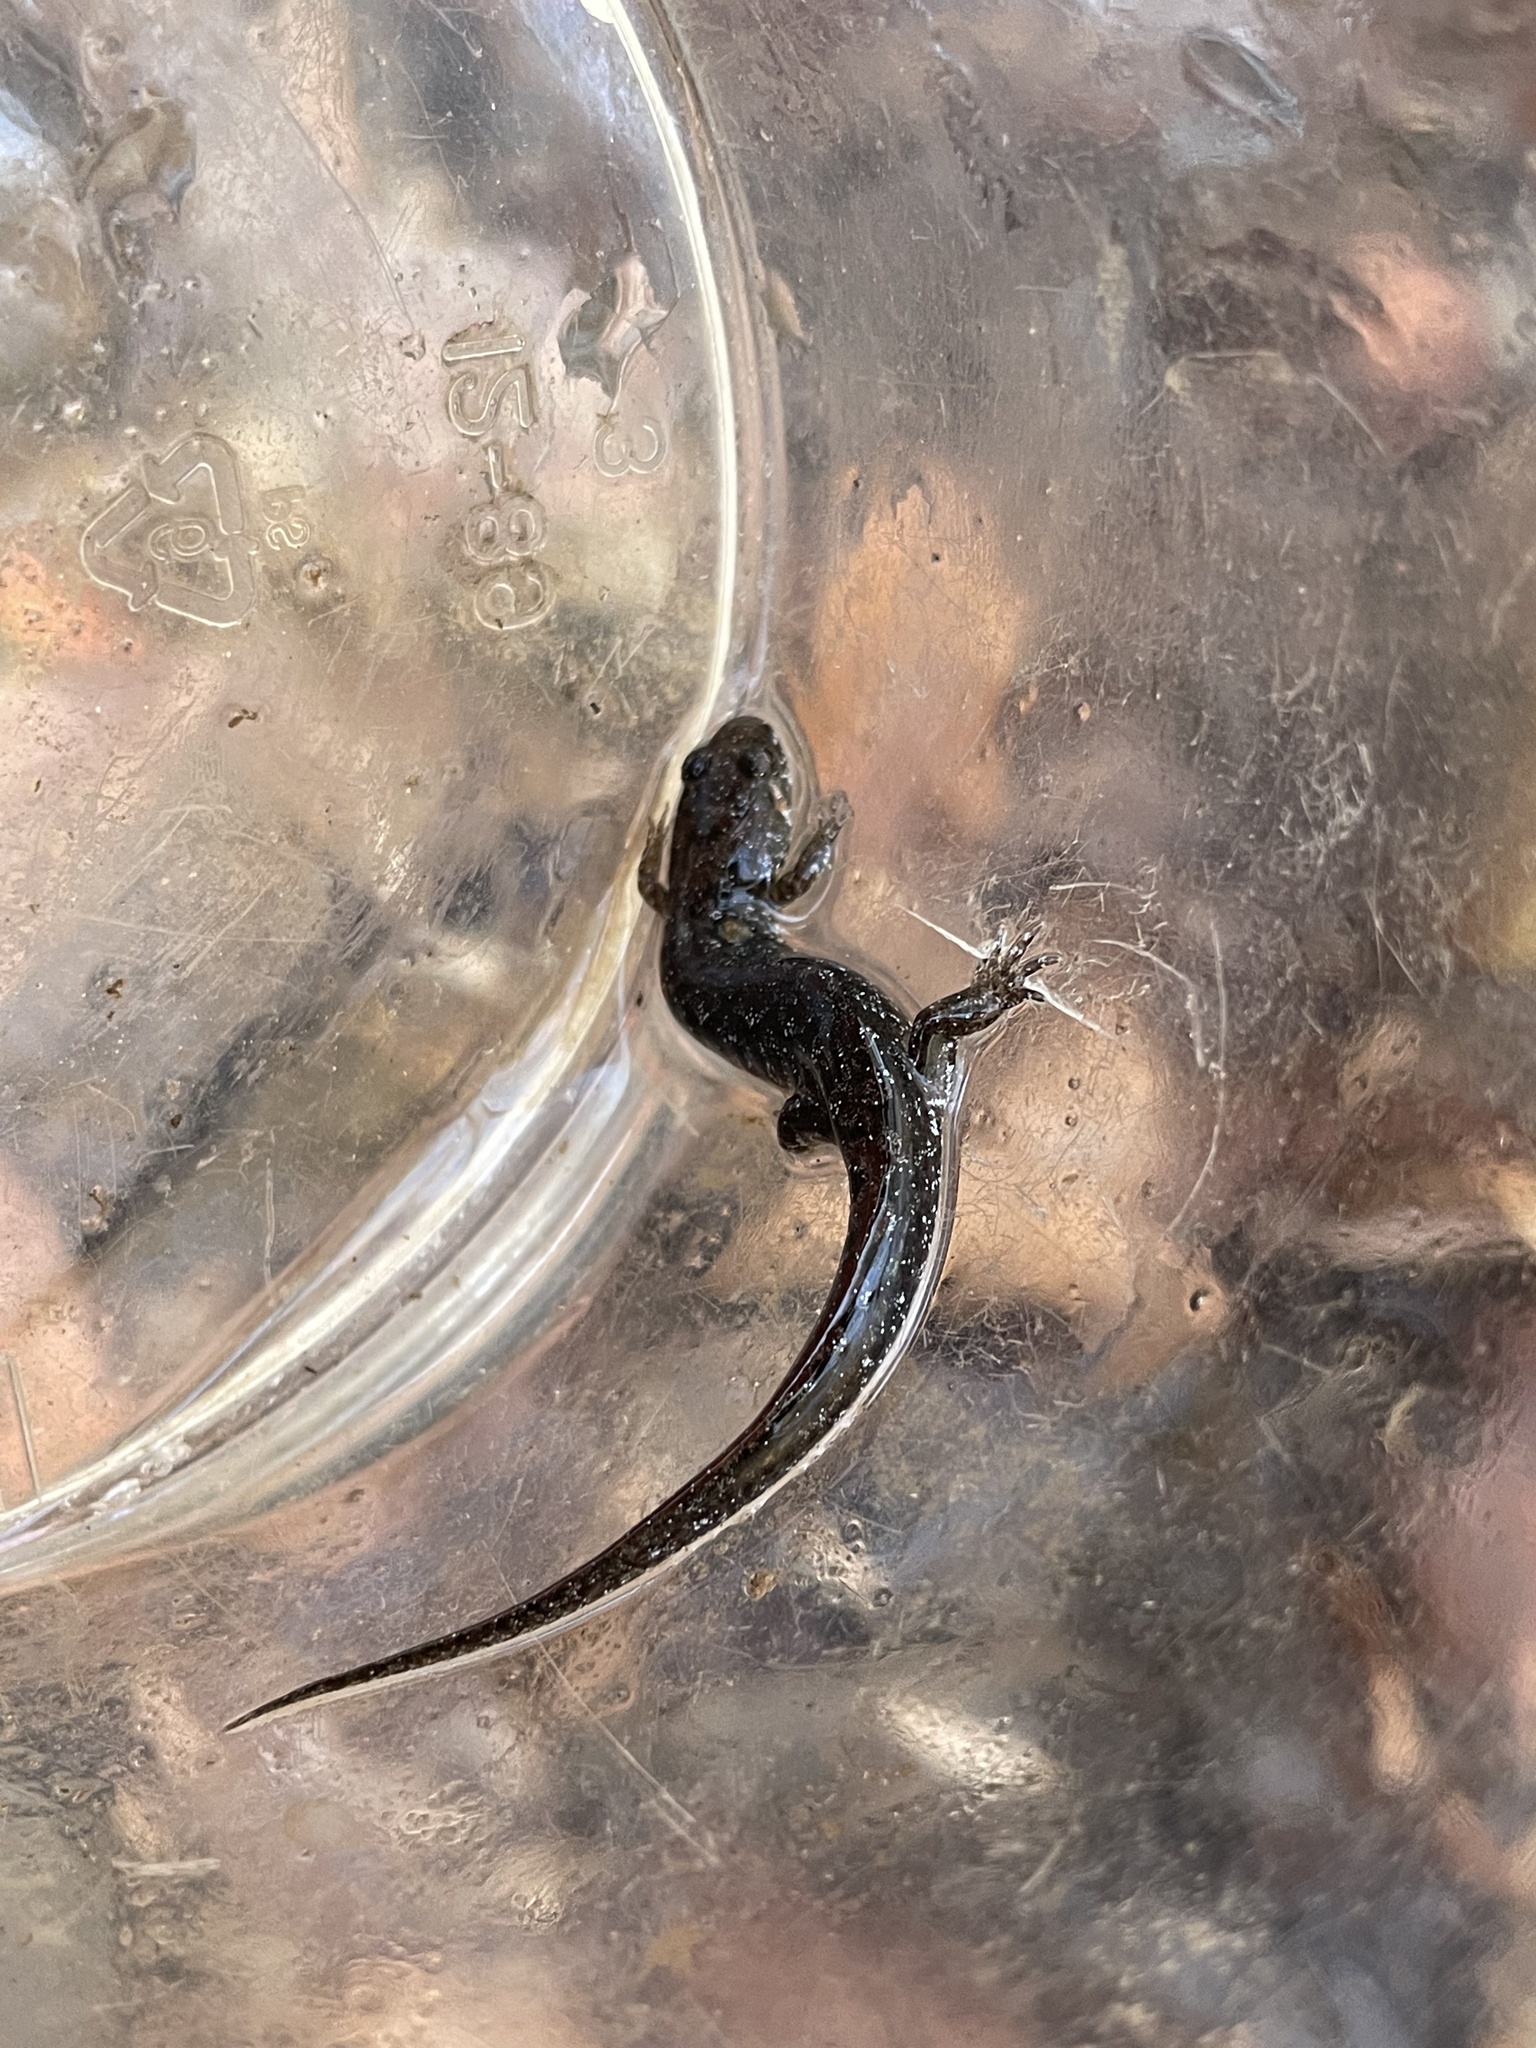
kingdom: Animalia
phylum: Chordata
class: Amphibia
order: Caudata
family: Plethodontidae
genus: Desmognathus
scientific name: Desmognathus conanti
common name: Spotted dusky salamander
